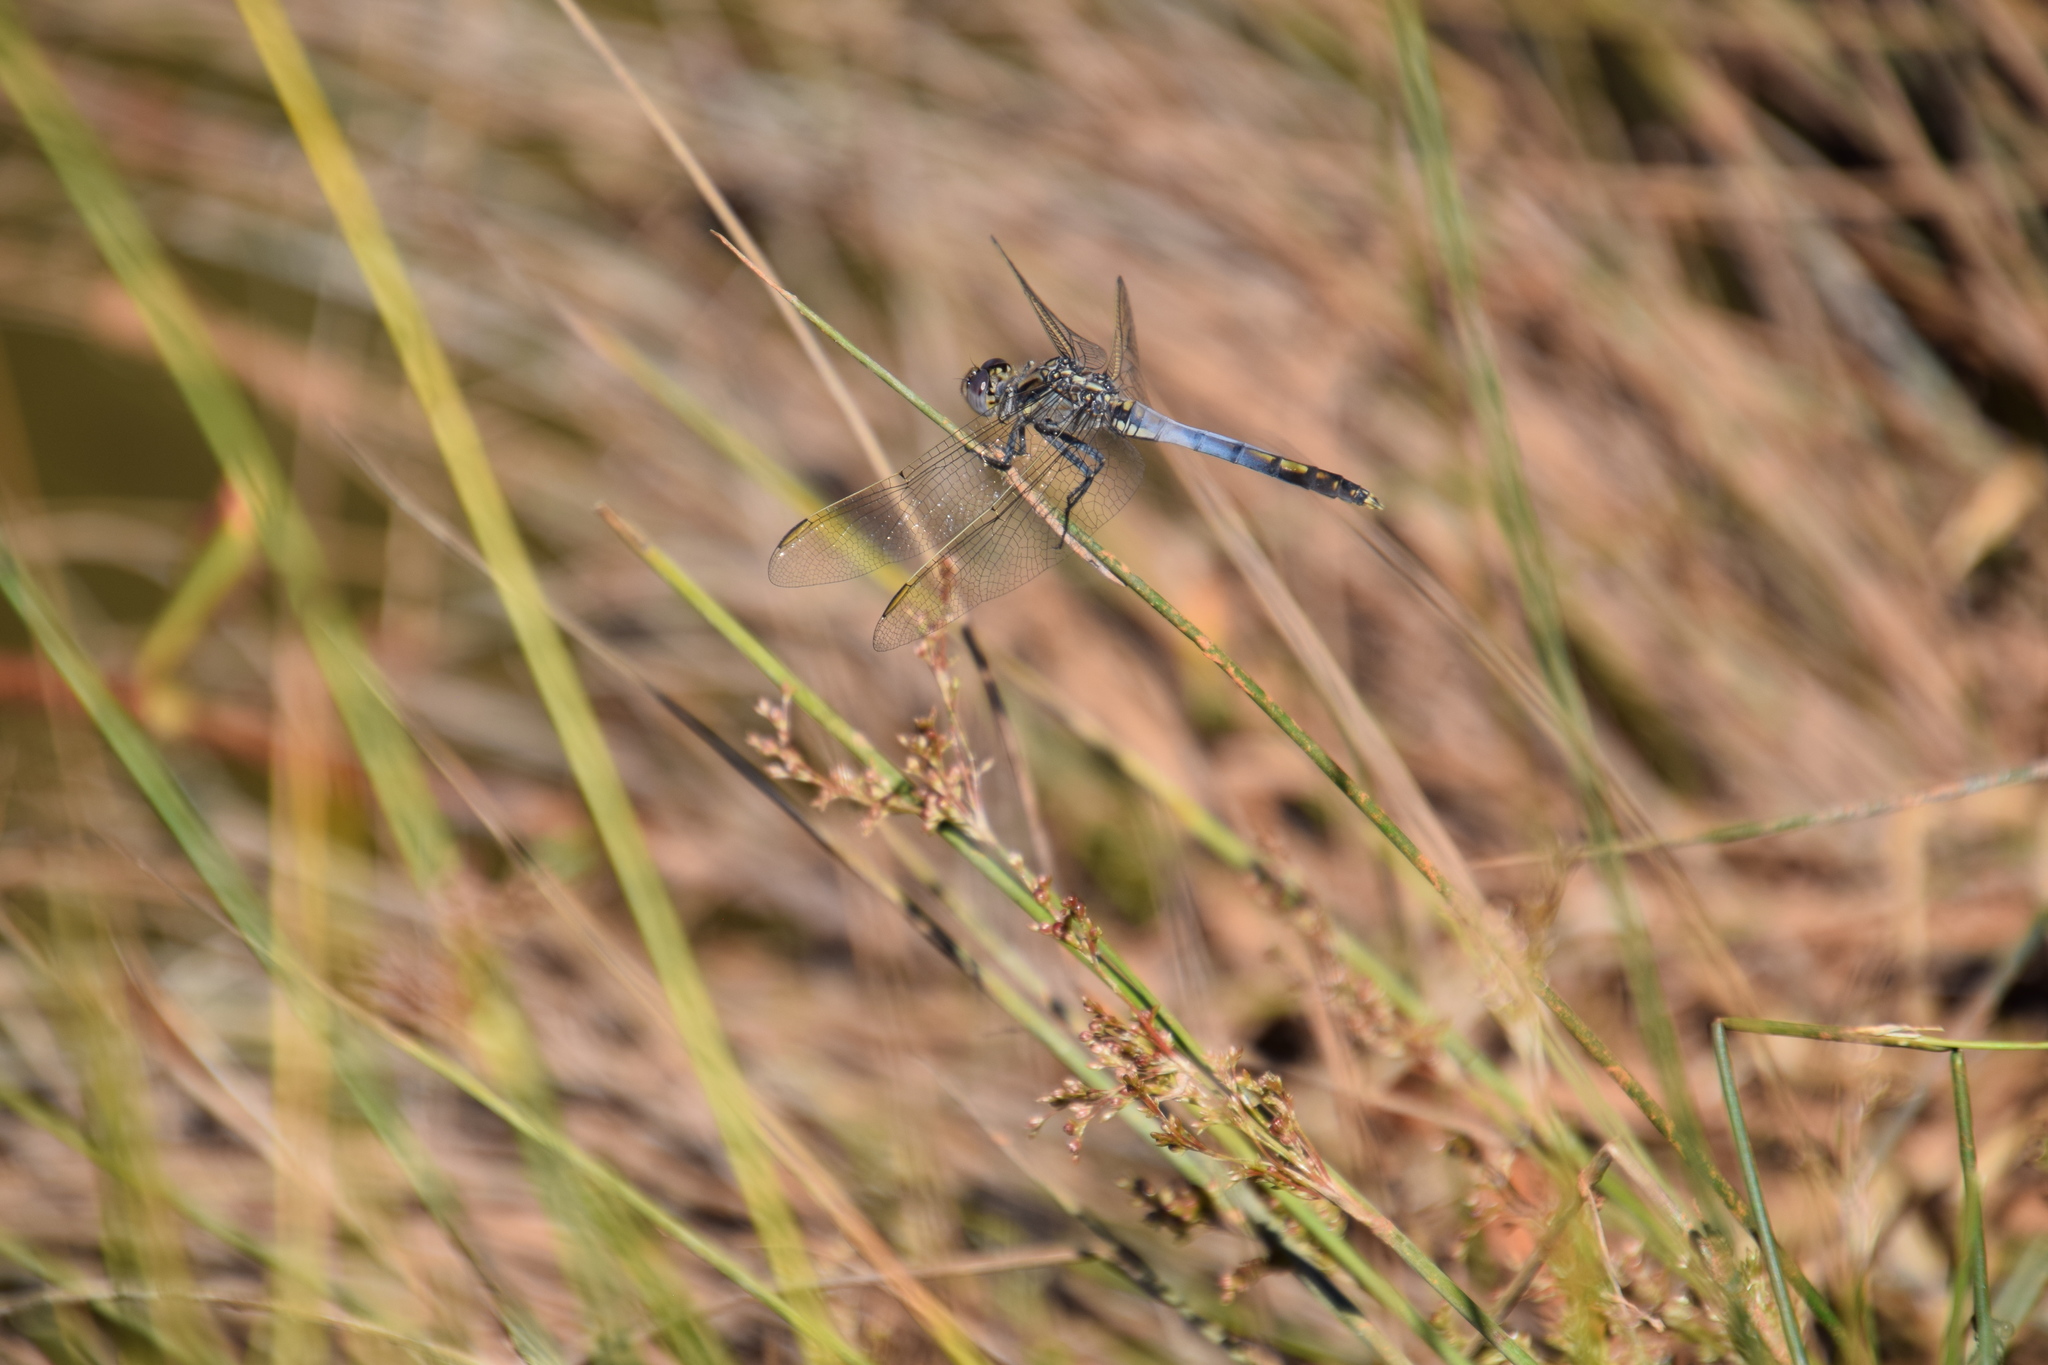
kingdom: Animalia
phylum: Arthropoda
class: Insecta
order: Odonata
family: Libellulidae
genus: Orthetrum
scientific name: Orthetrum caledonicum
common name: Blue skimmer
